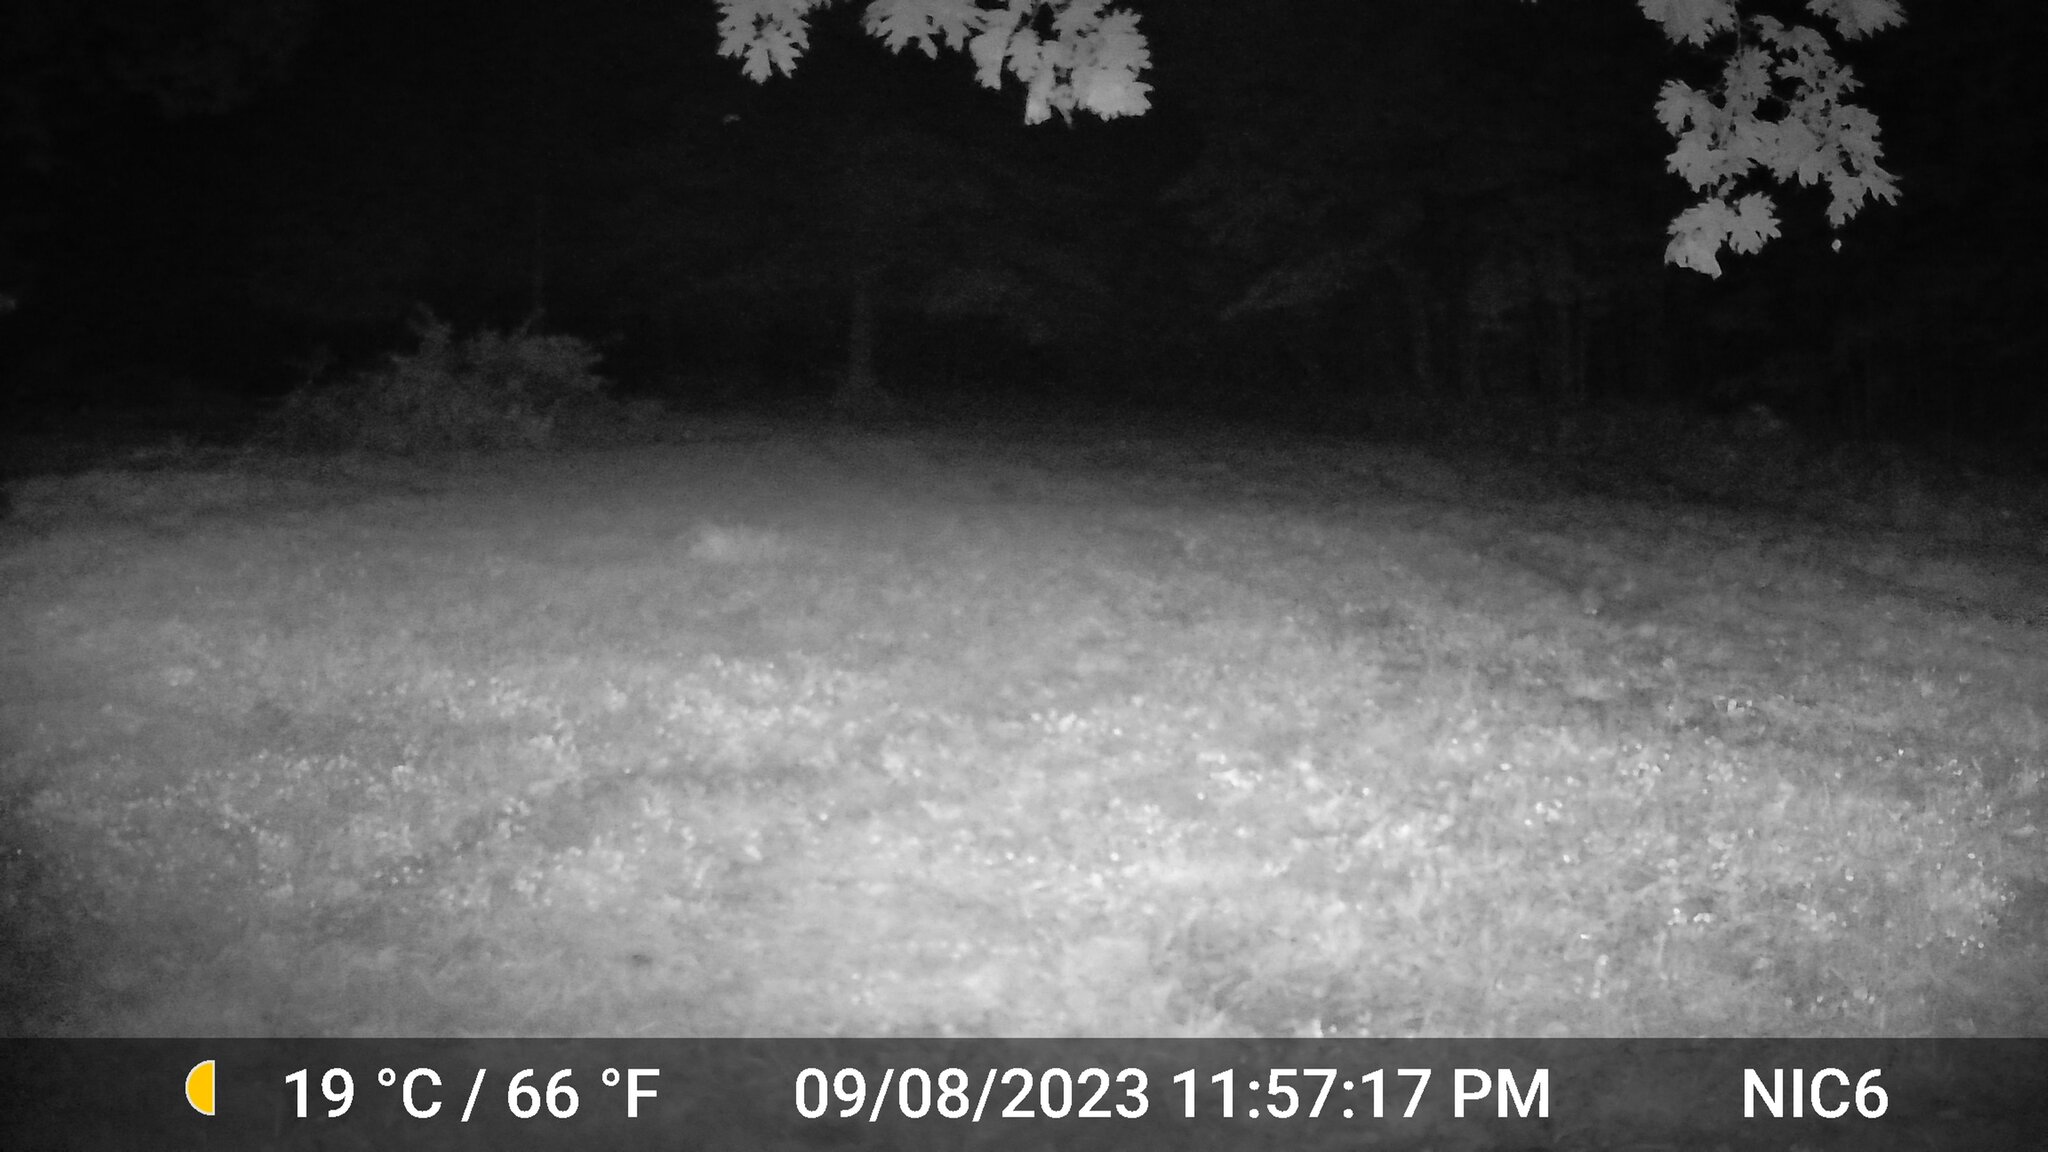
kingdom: Animalia
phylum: Chordata
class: Mammalia
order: Artiodactyla
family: Cervidae
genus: Odocoileus
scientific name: Odocoileus virginianus
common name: White-tailed deer
